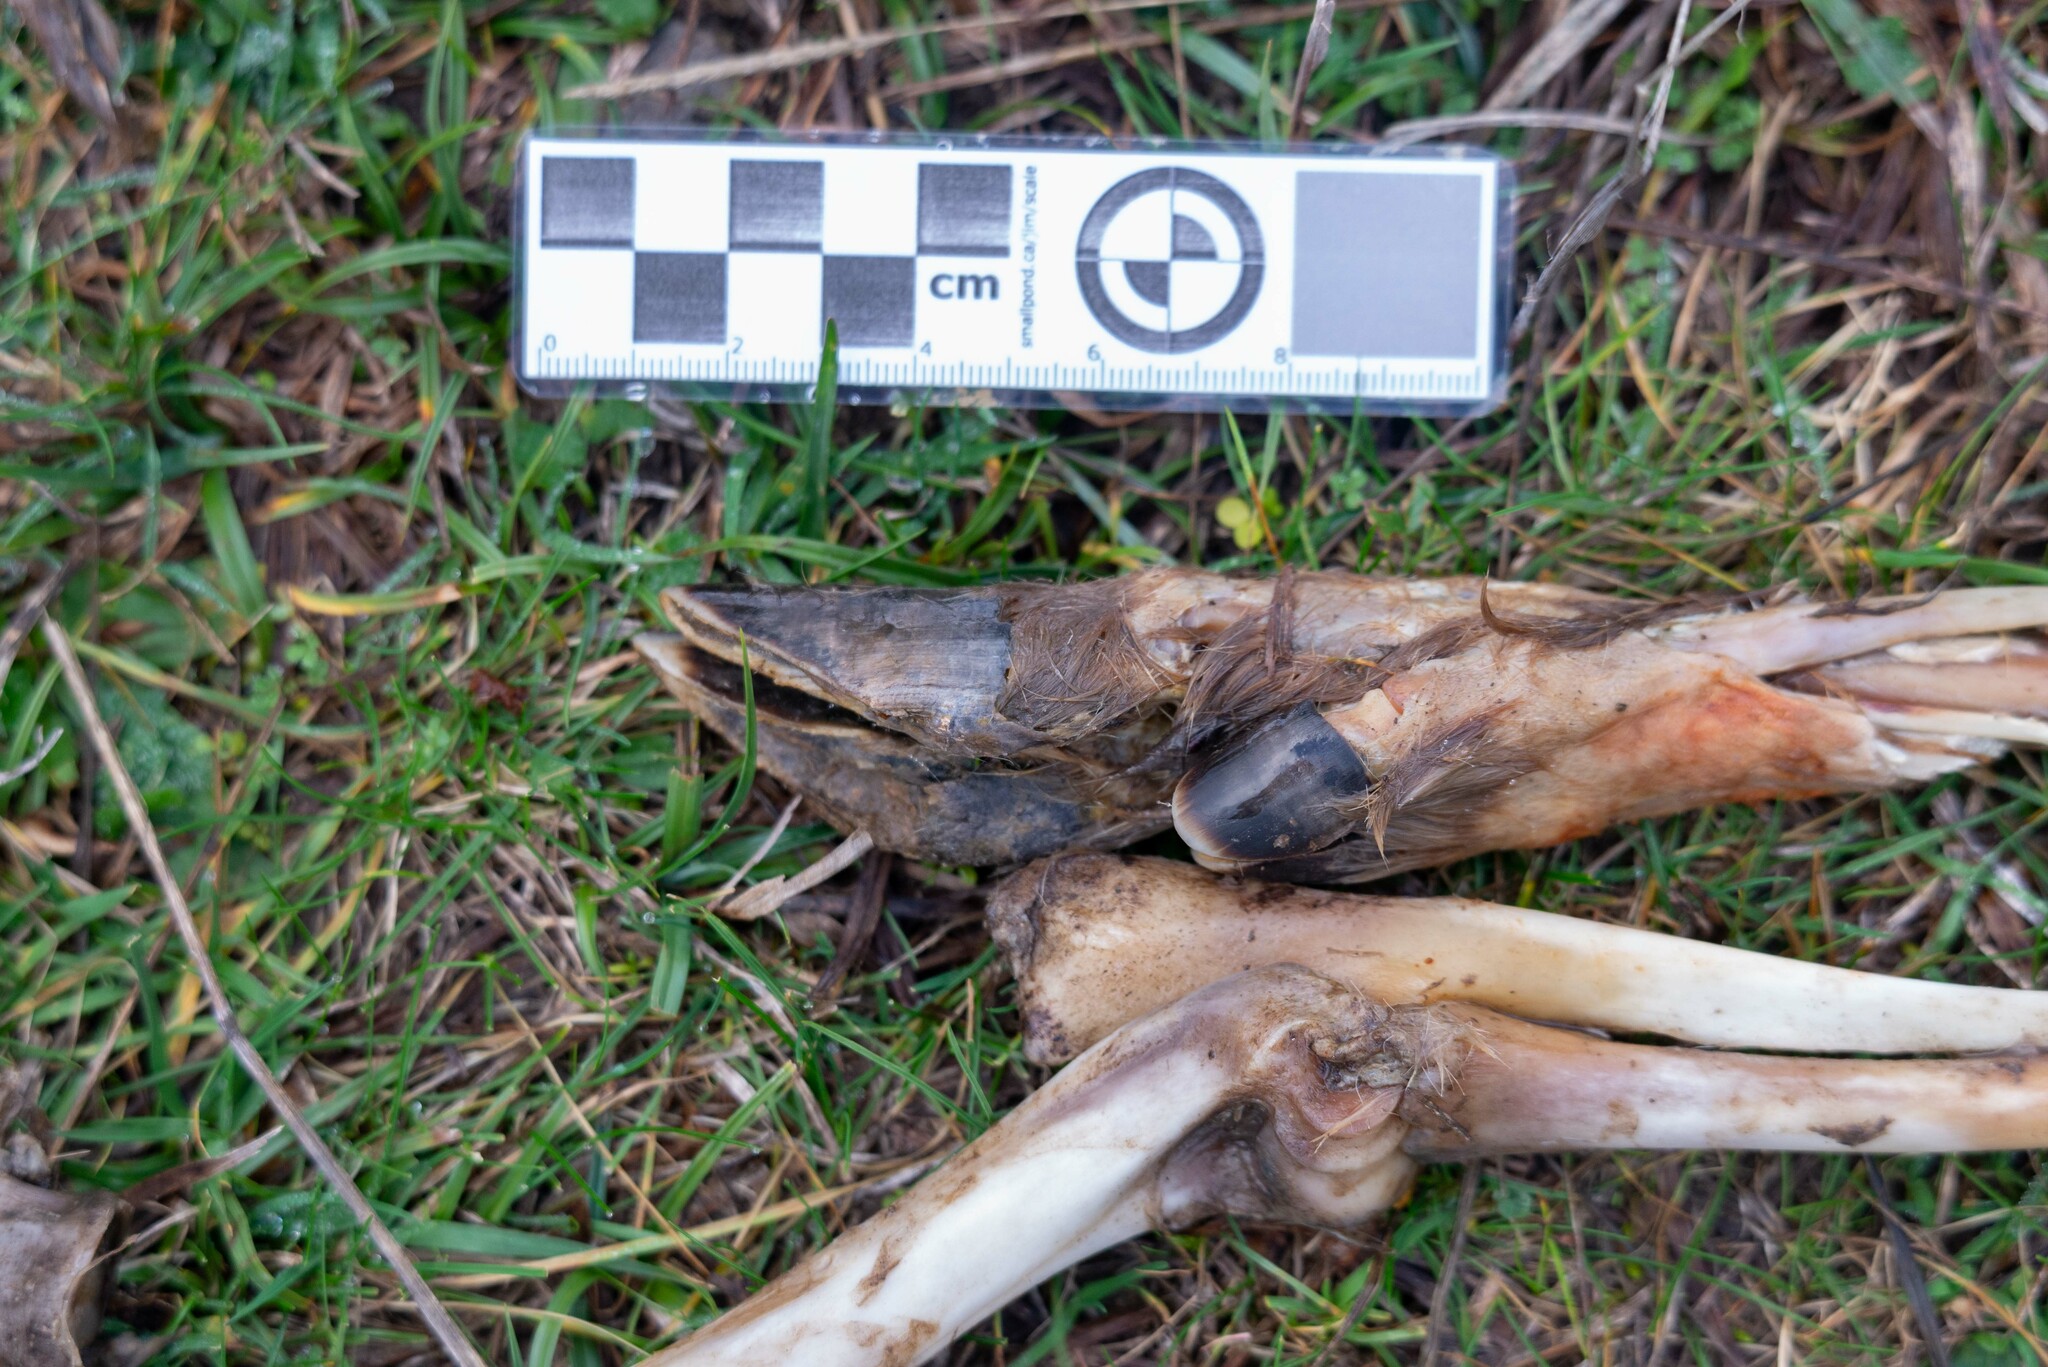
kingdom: Animalia
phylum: Chordata
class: Mammalia
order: Artiodactyla
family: Cervidae
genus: Capreolus
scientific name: Capreolus capreolus
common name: Western roe deer
